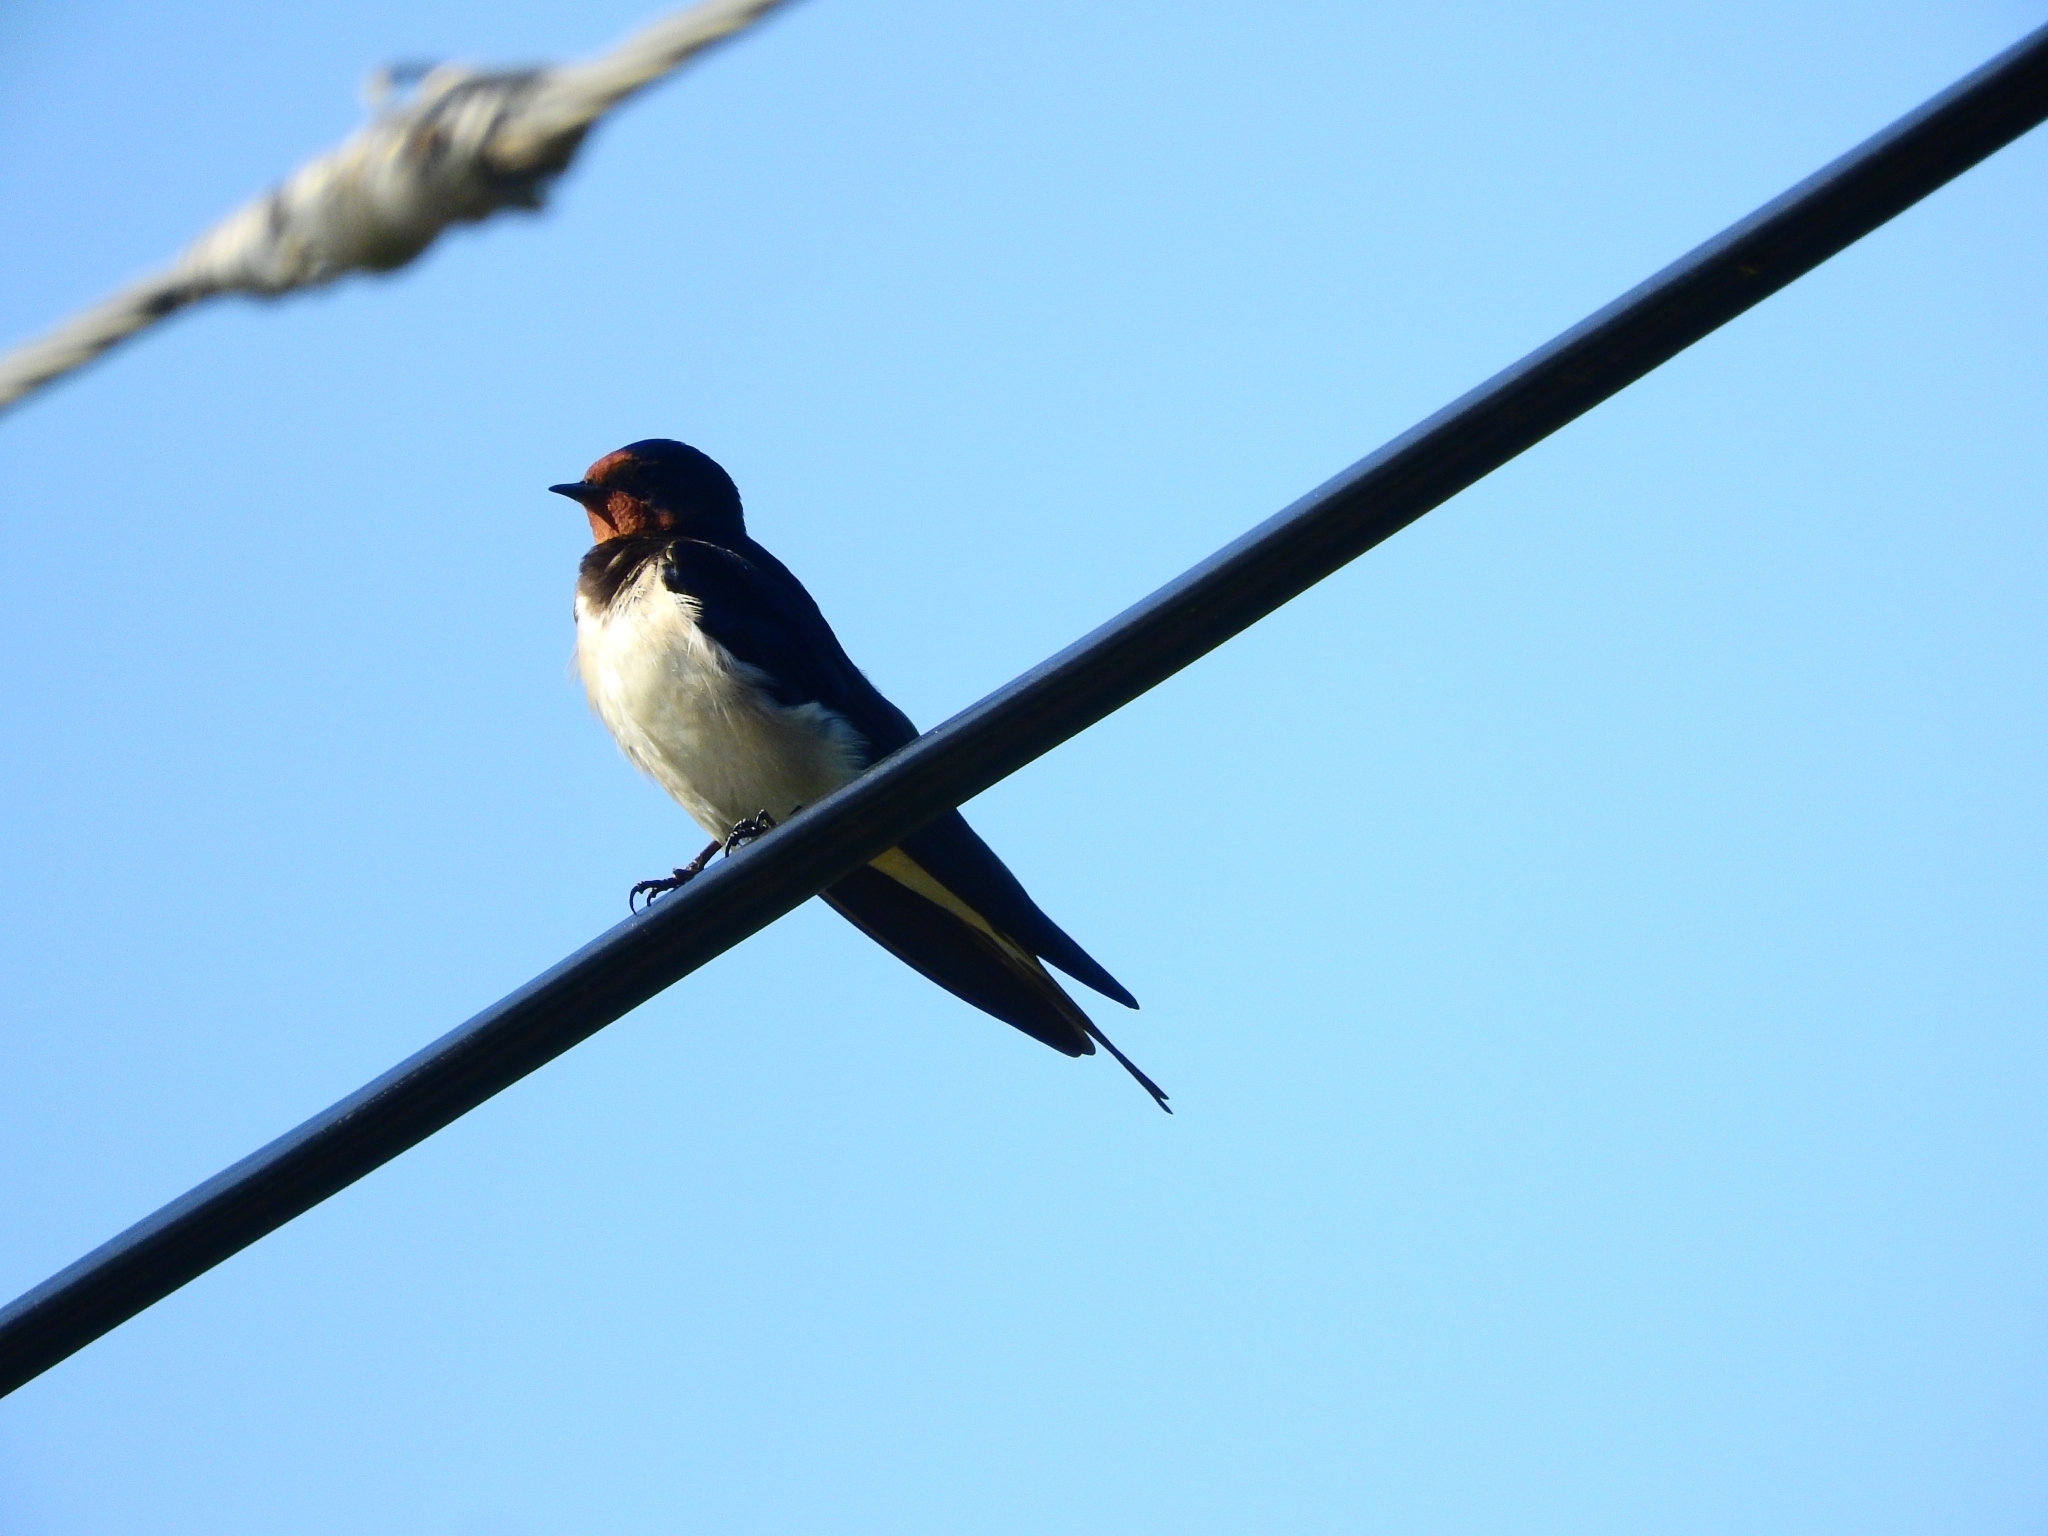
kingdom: Animalia
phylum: Chordata
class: Aves
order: Passeriformes
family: Hirundinidae
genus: Hirundo
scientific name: Hirundo rustica
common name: Barn swallow
